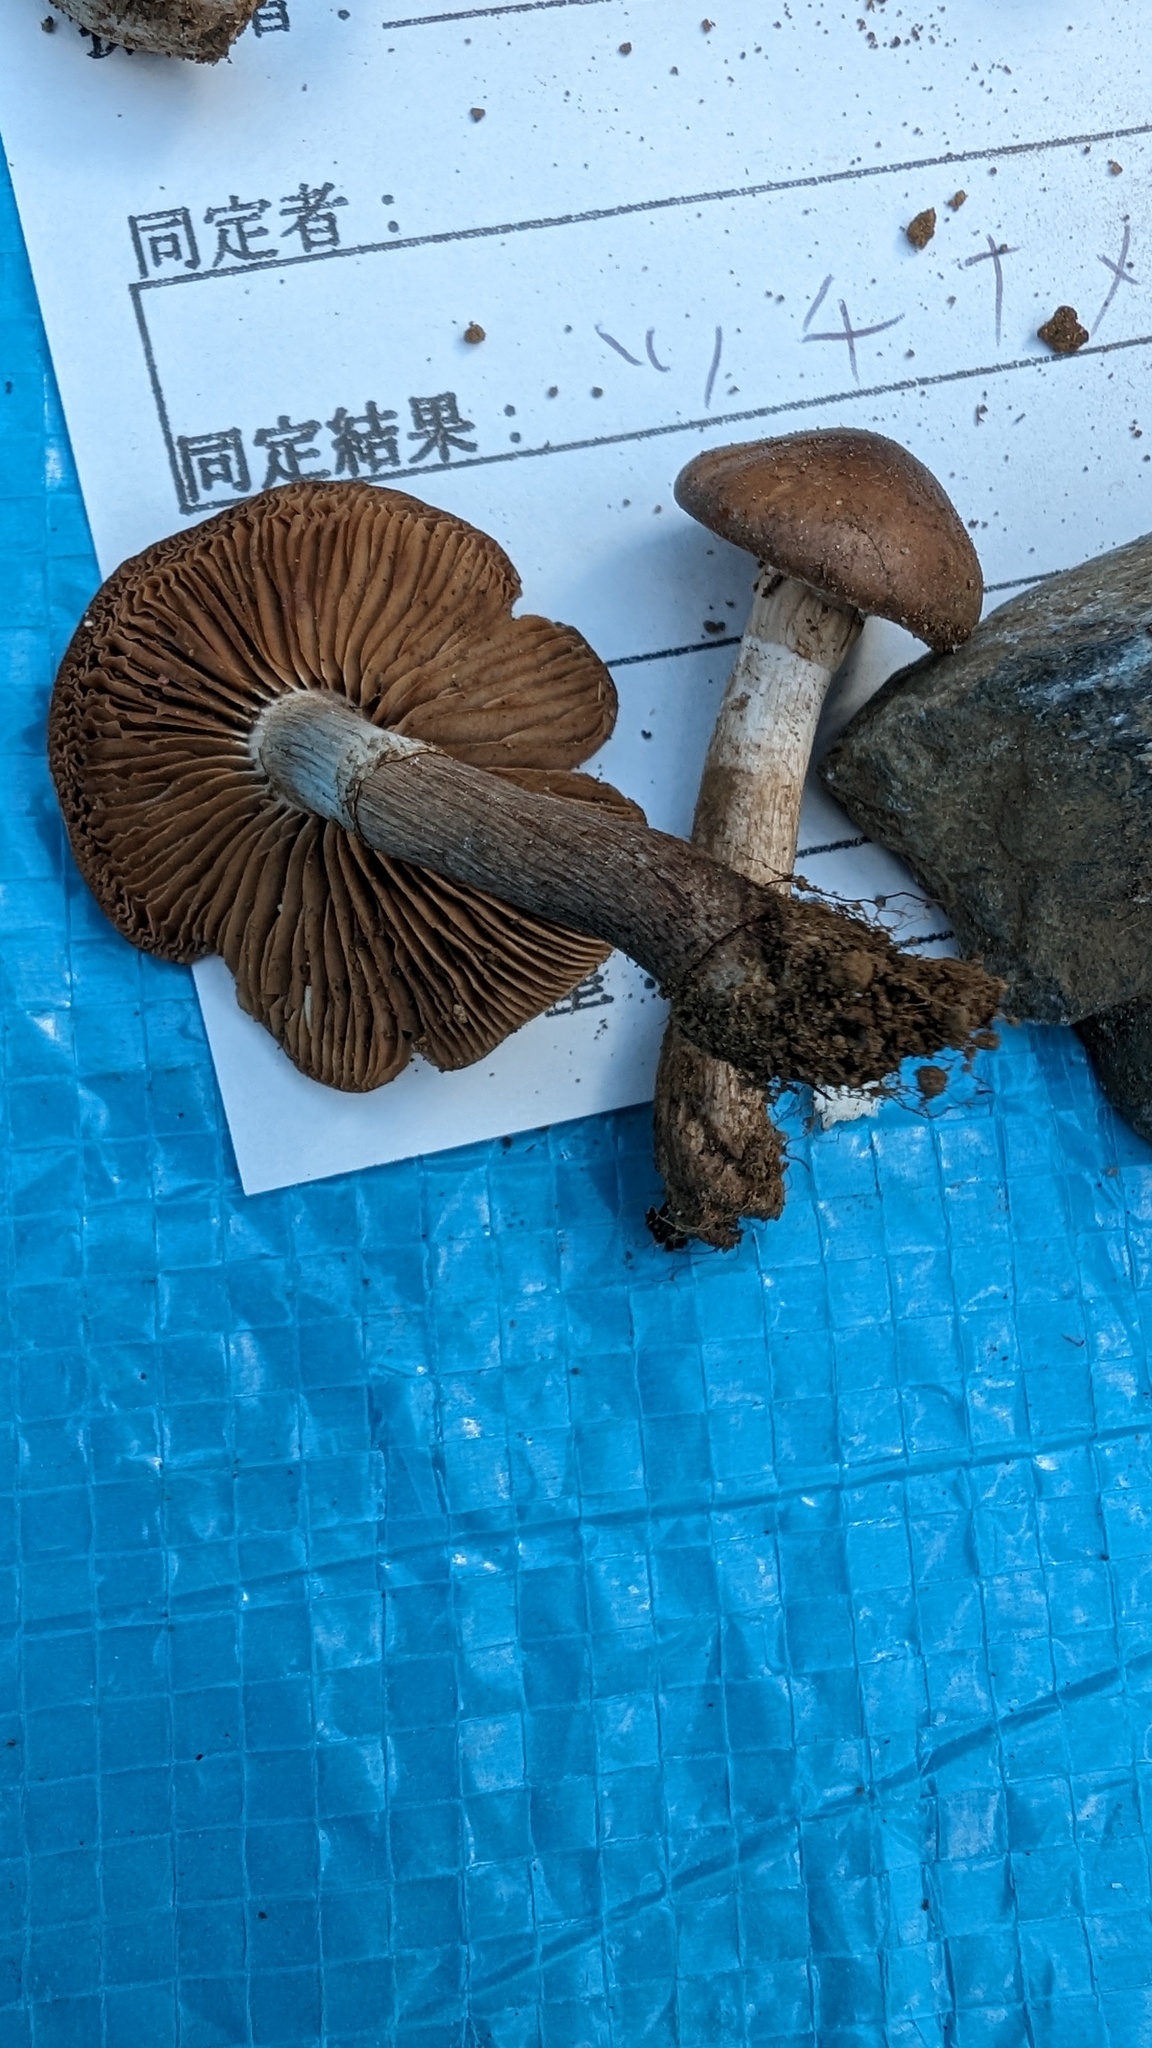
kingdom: Fungi
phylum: Basidiomycota
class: Agaricomycetes
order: Agaricales
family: Tubariaceae
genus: Cyclocybe
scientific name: Cyclocybe erebia
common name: Dark fieldcap
